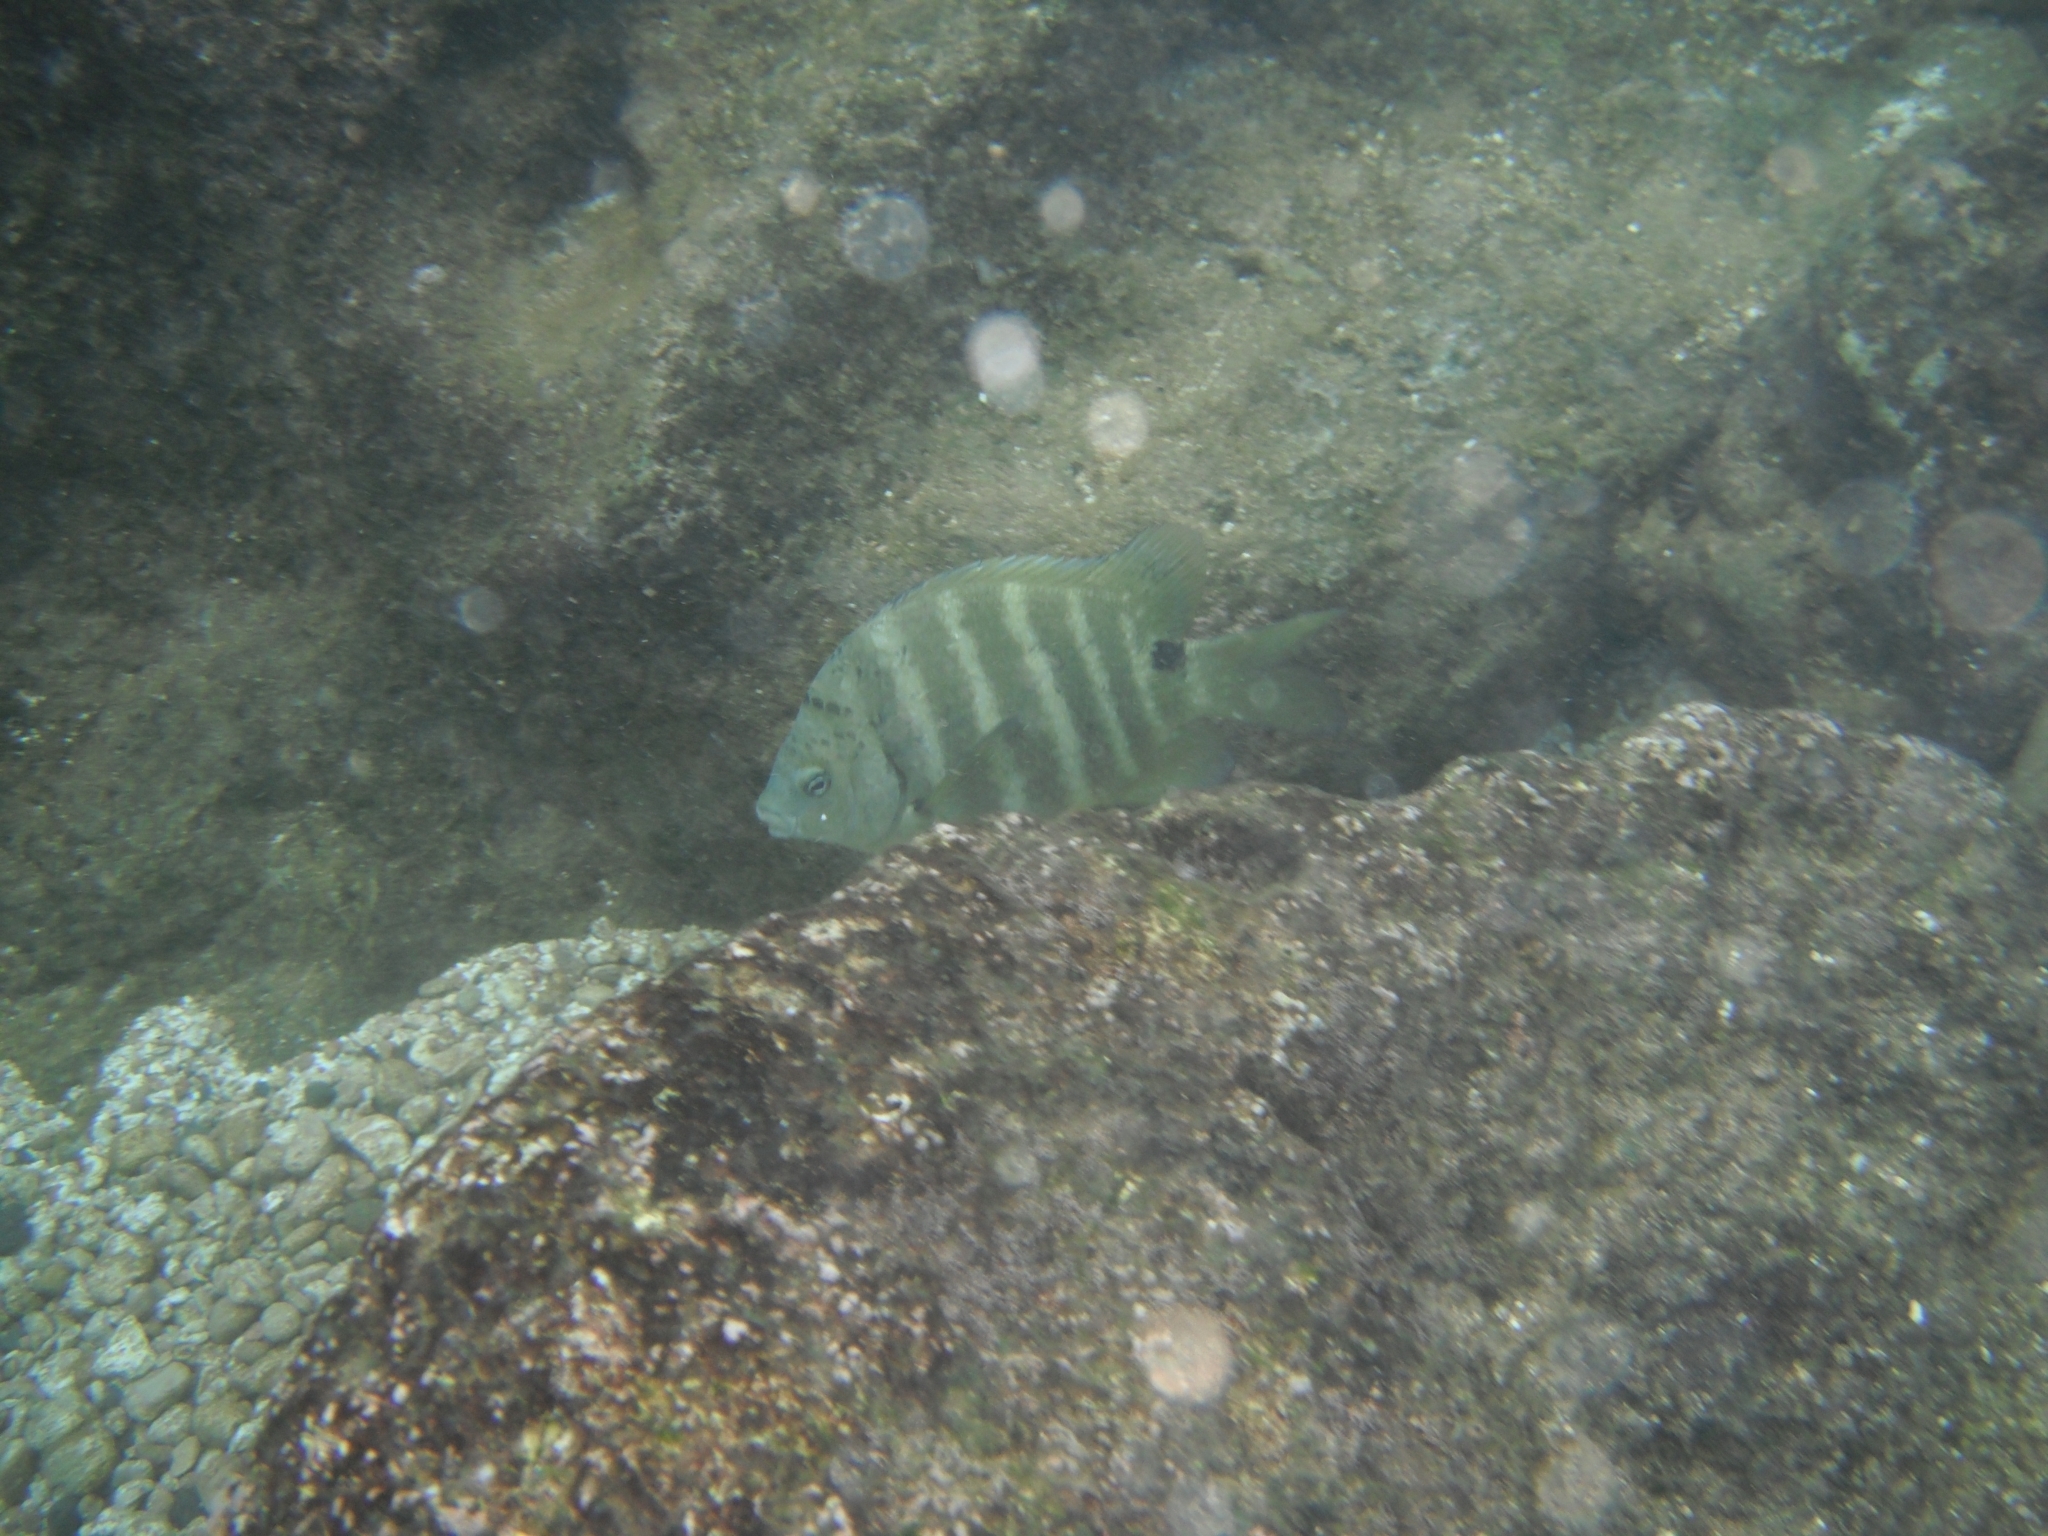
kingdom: Animalia
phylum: Chordata
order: Perciformes
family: Pomacentridae
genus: Abudefduf
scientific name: Abudefduf sordidus
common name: Blackspot sergeant
